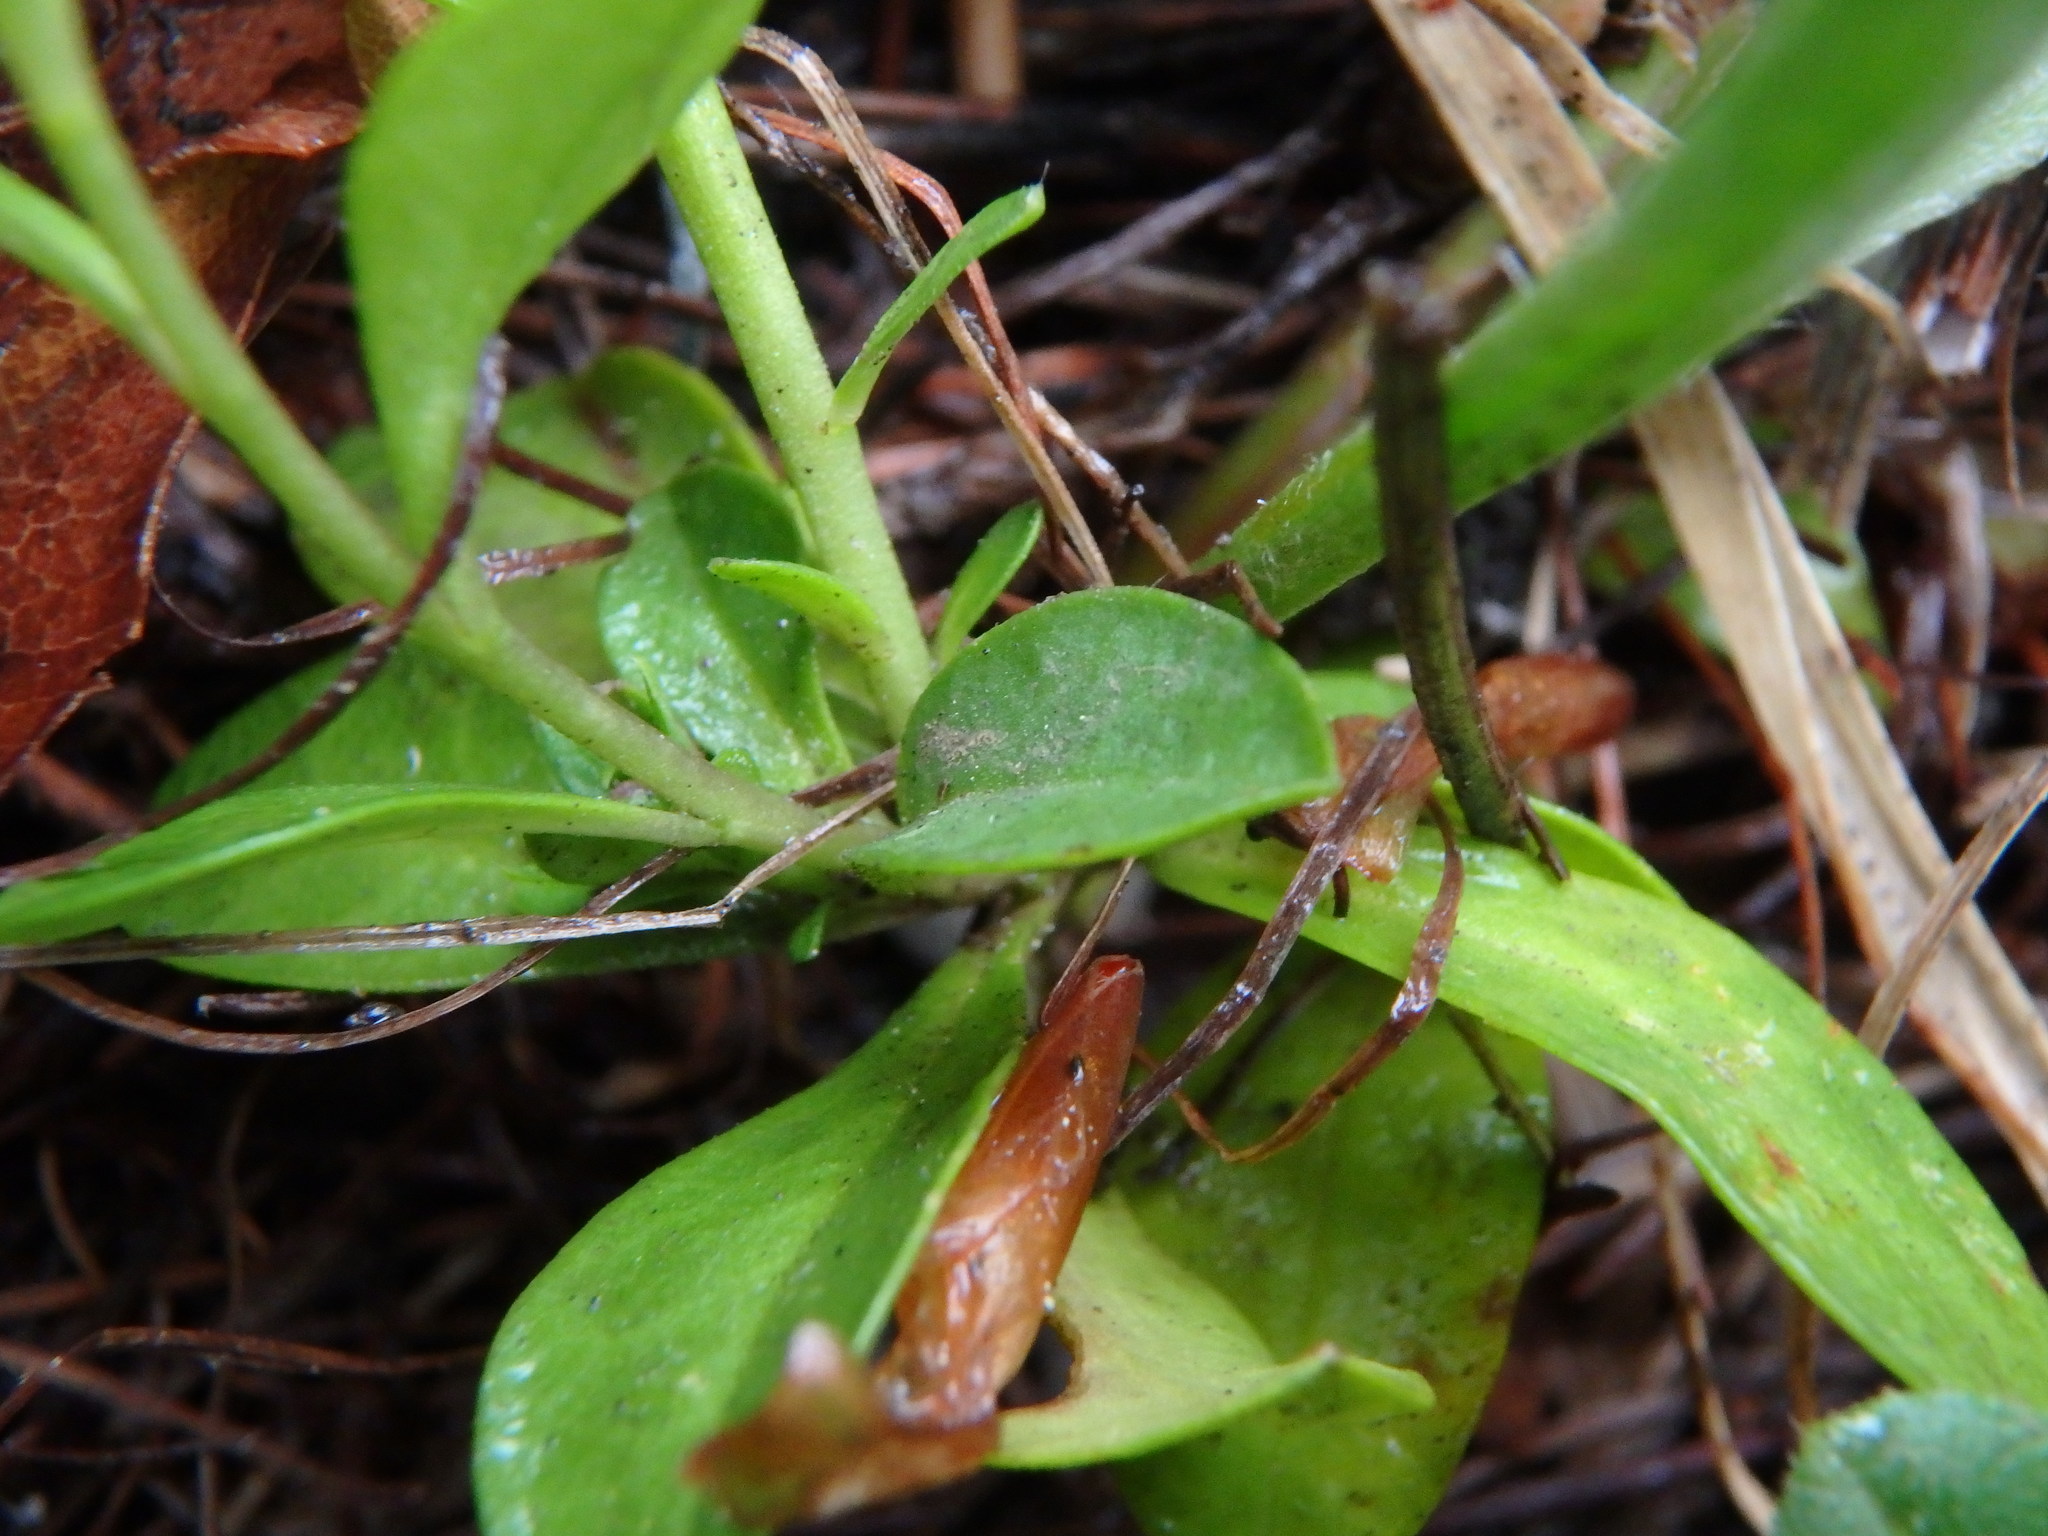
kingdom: Plantae
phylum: Tracheophyta
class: Magnoliopsida
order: Fabales
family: Polygalaceae
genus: Polygala
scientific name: Polygala calcarea
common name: Chalk milkwort
